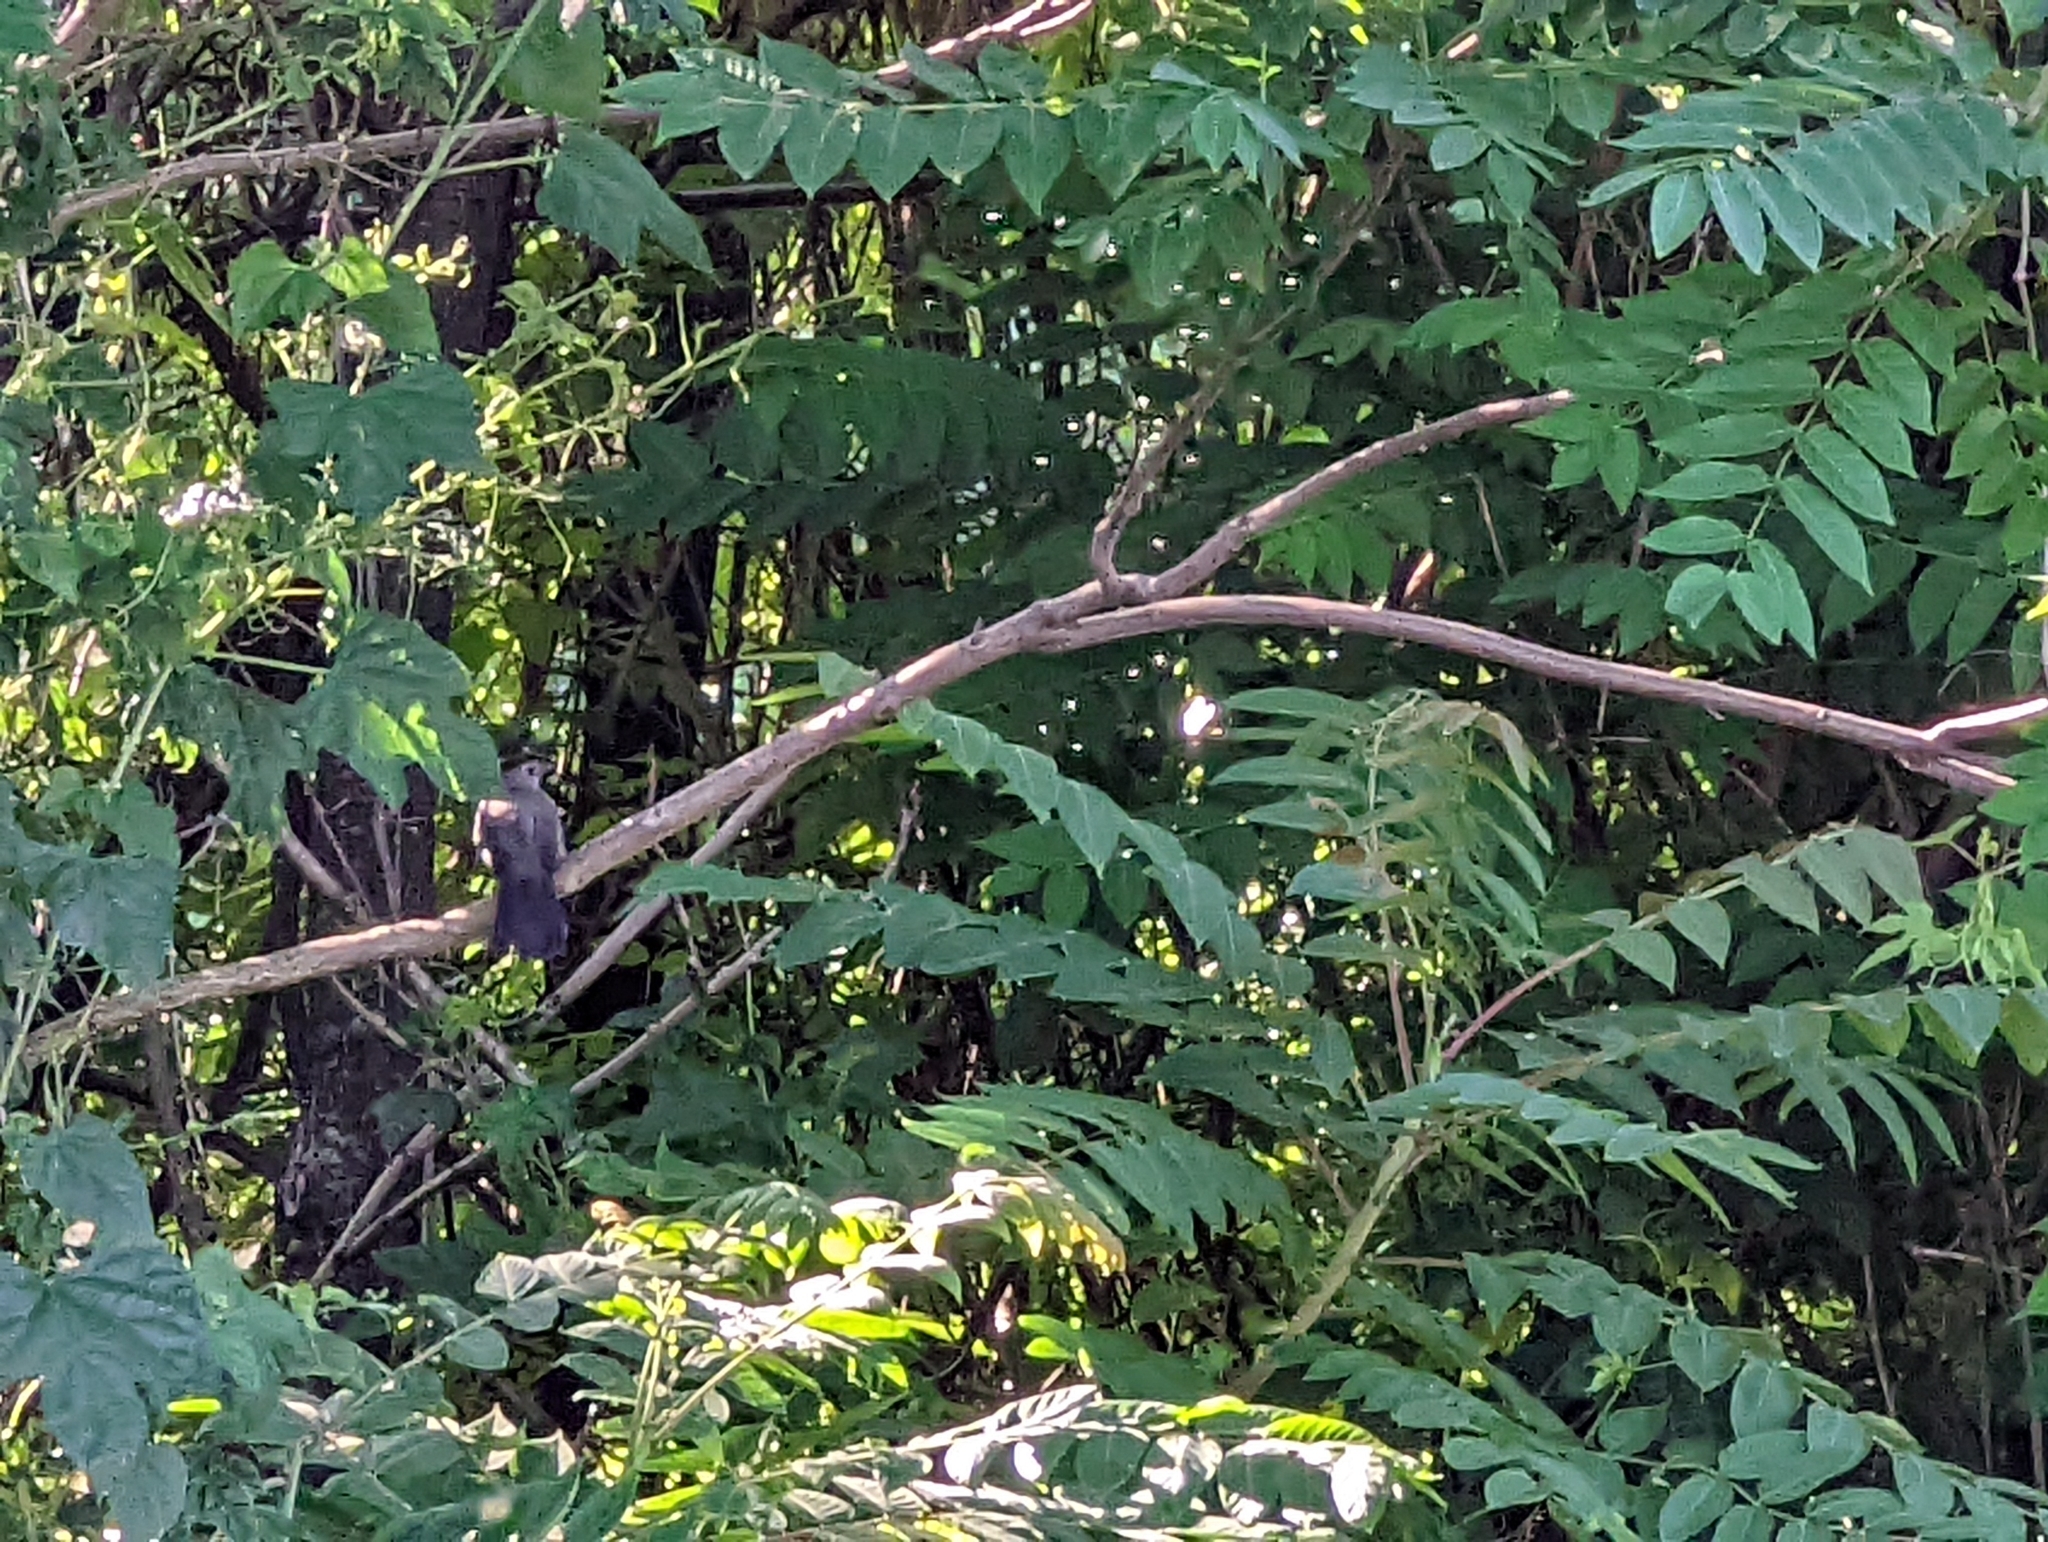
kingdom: Animalia
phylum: Chordata
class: Aves
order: Passeriformes
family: Mimidae
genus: Dumetella
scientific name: Dumetella carolinensis
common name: Gray catbird
